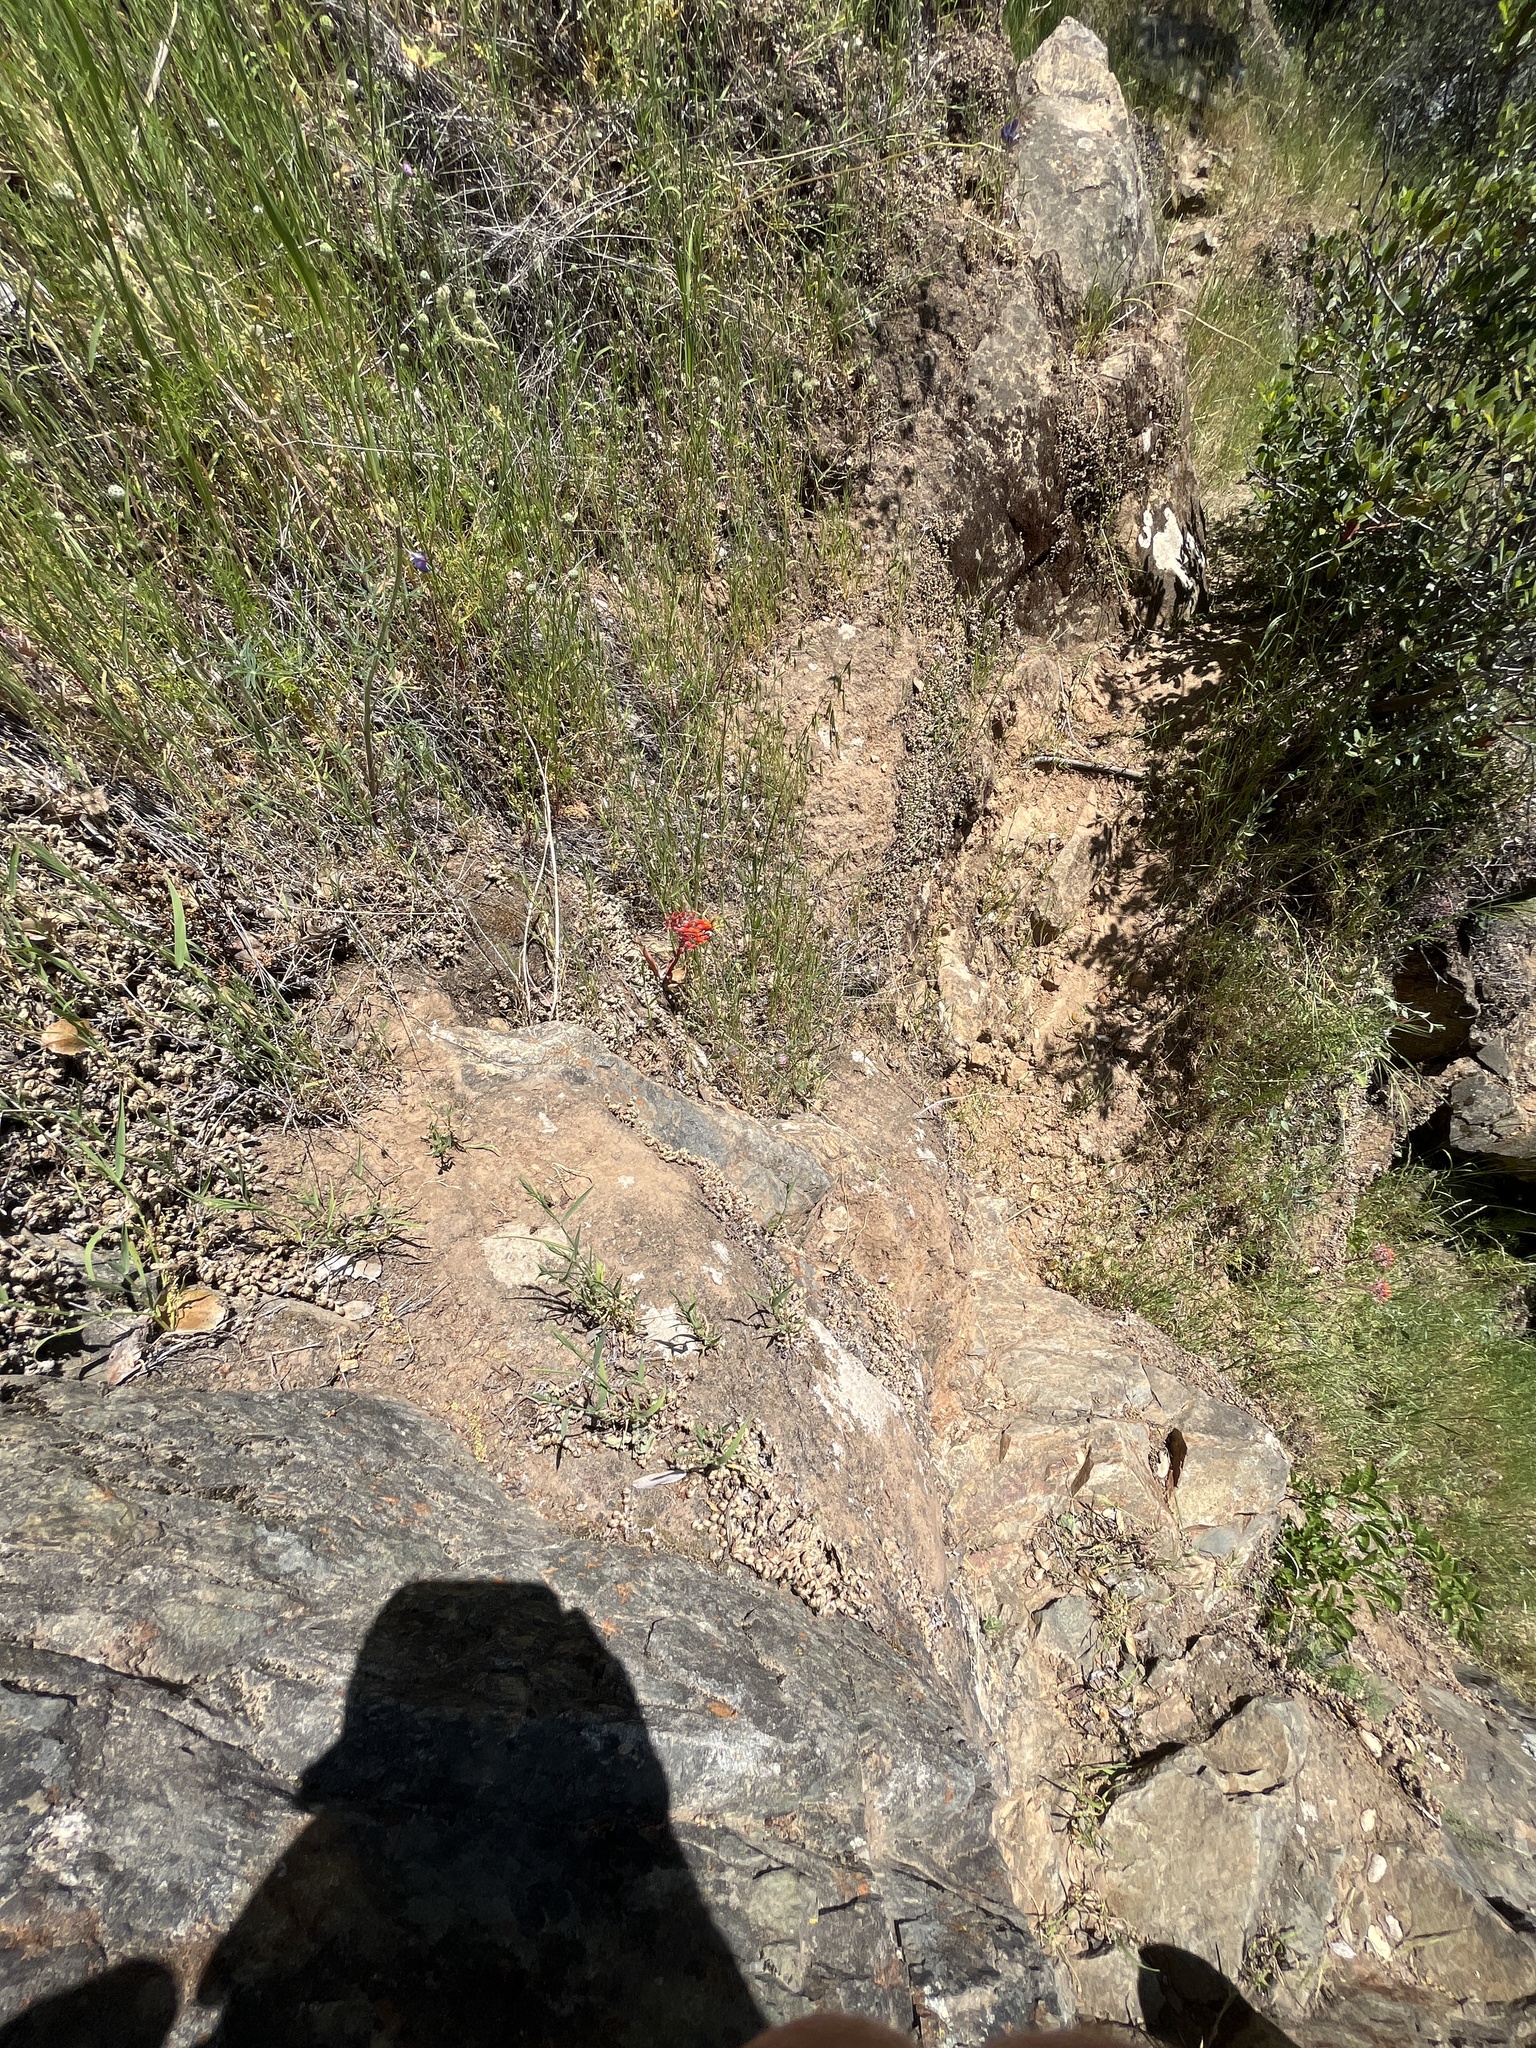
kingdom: Plantae
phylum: Tracheophyta
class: Magnoliopsida
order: Saxifragales
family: Crassulaceae
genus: Dudleya
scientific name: Dudleya cymosa
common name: Canyon dudleya
